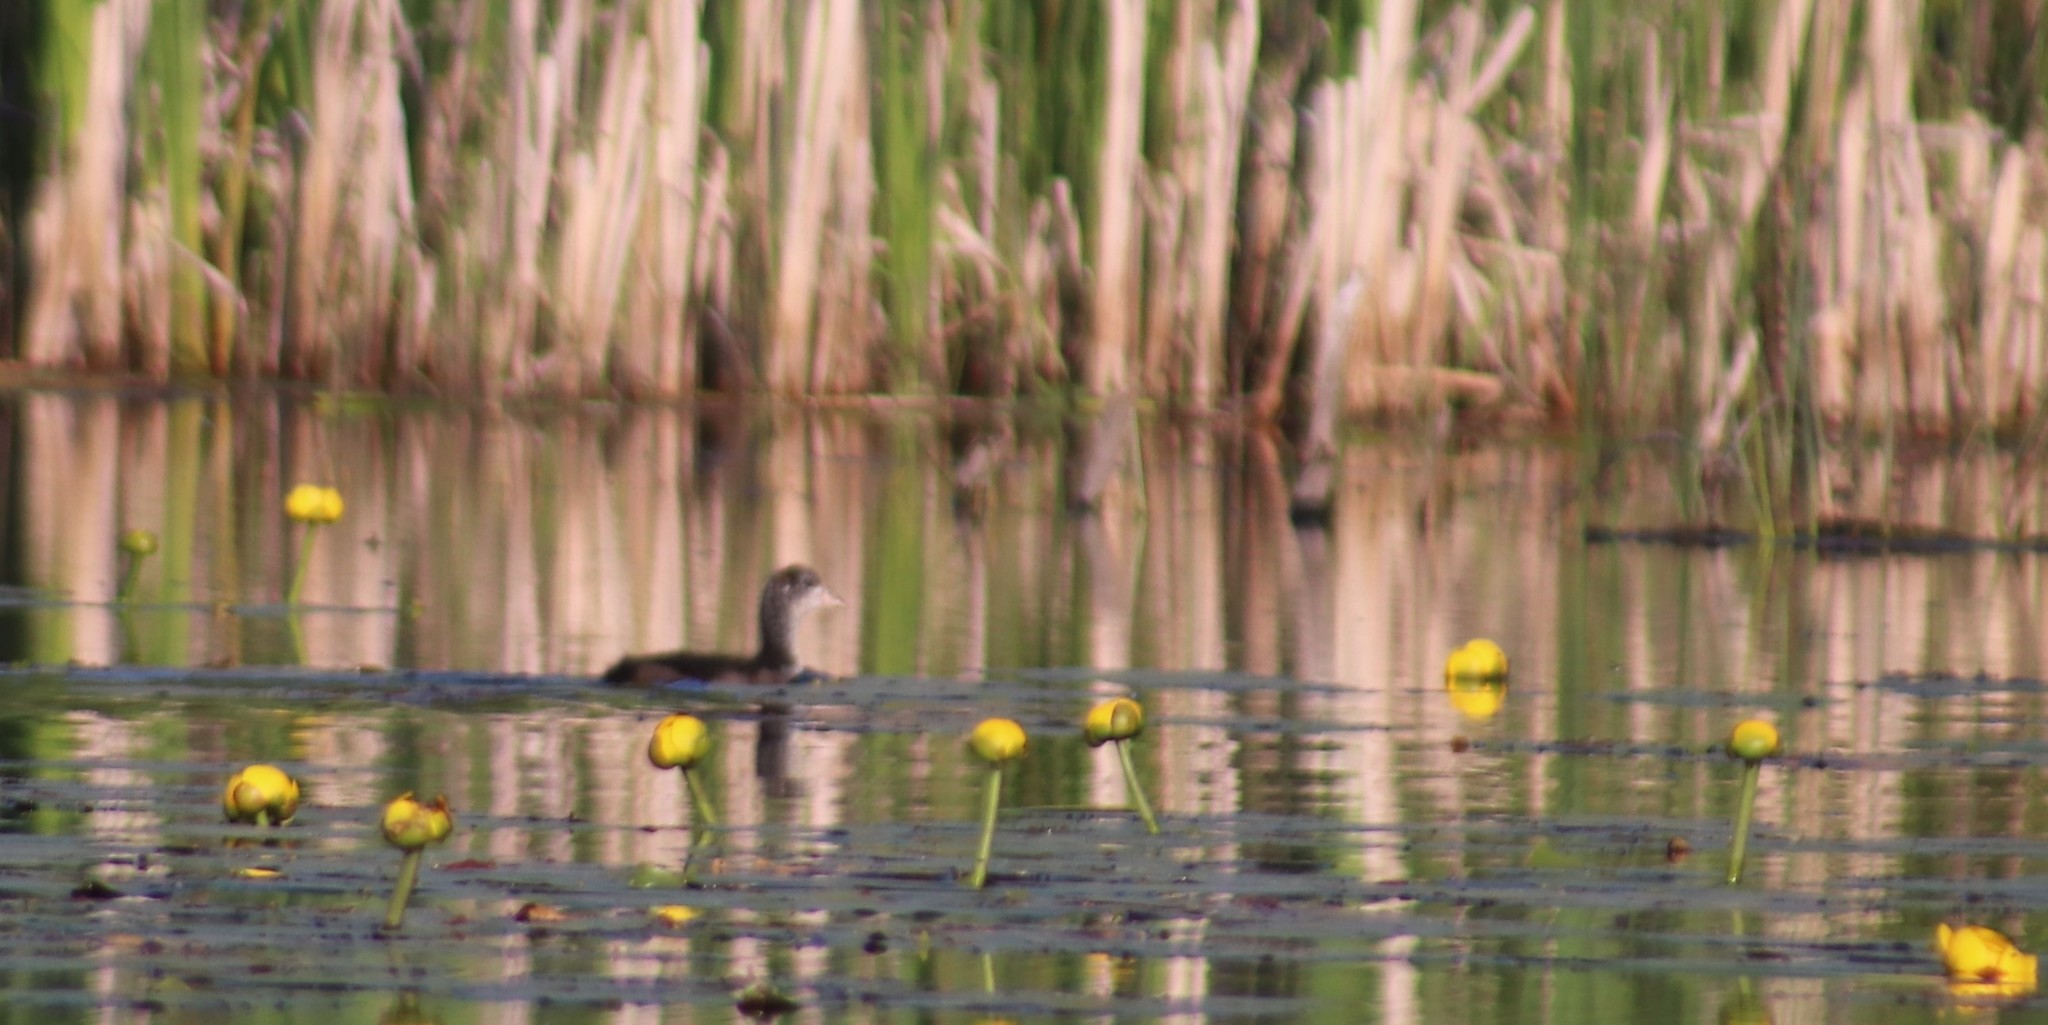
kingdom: Animalia
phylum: Chordata
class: Aves
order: Gruiformes
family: Rallidae
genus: Fulica
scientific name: Fulica americana
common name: American coot
